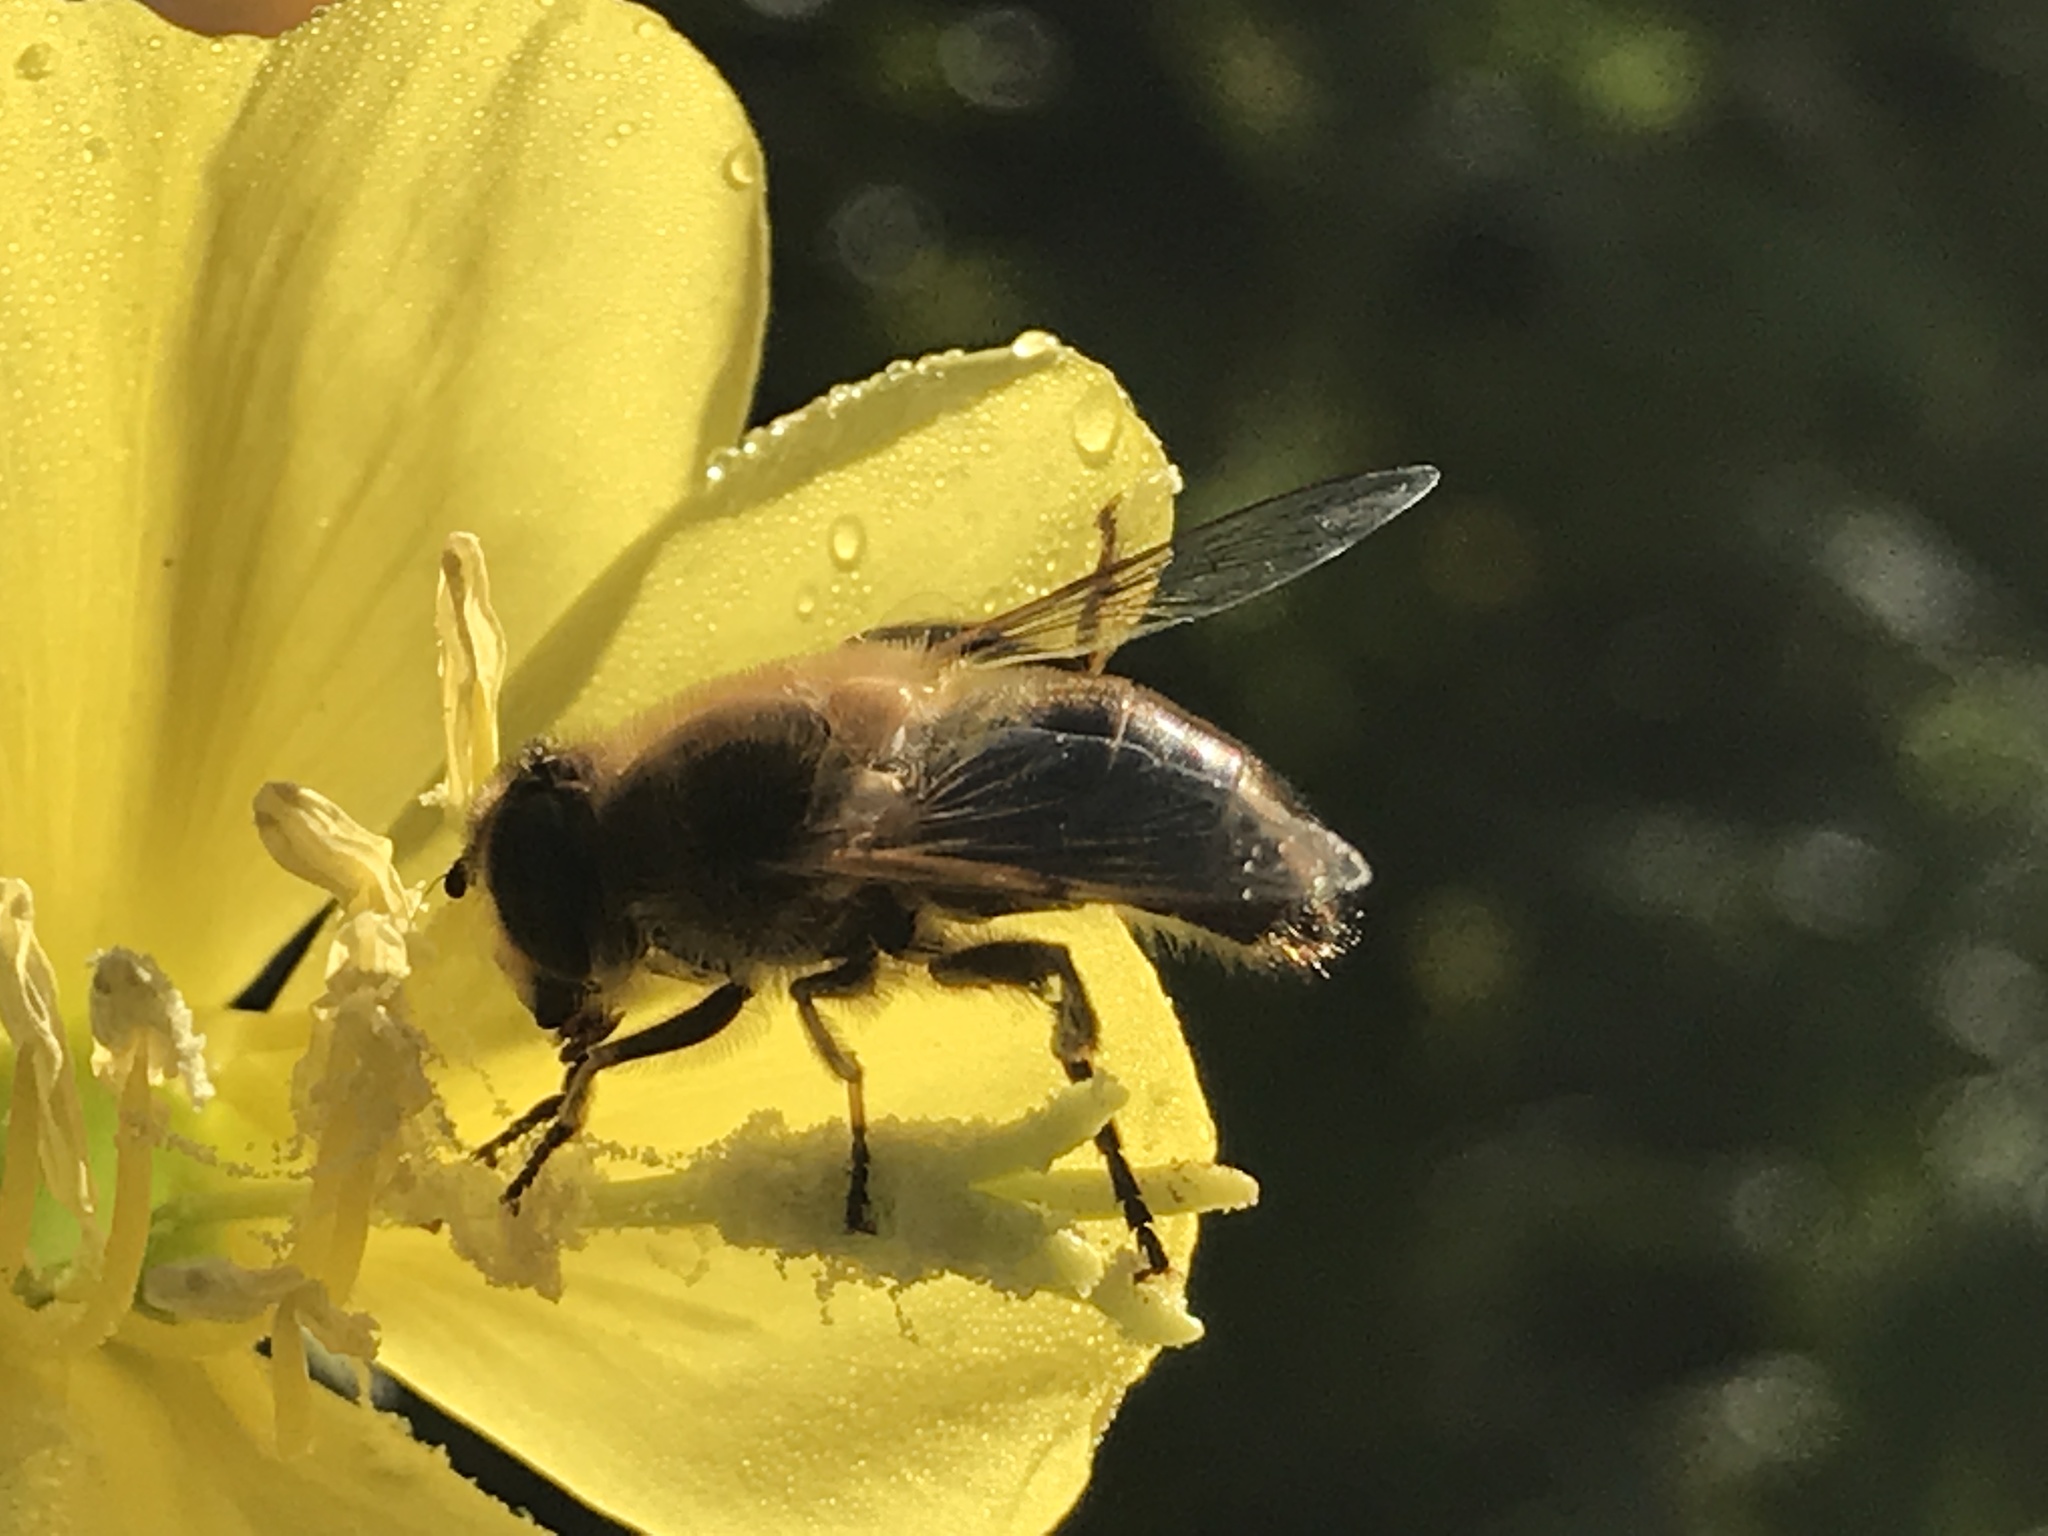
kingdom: Animalia
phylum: Arthropoda
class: Insecta
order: Diptera
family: Syrphidae
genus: Eristalis
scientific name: Eristalis tenax
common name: Drone fly
